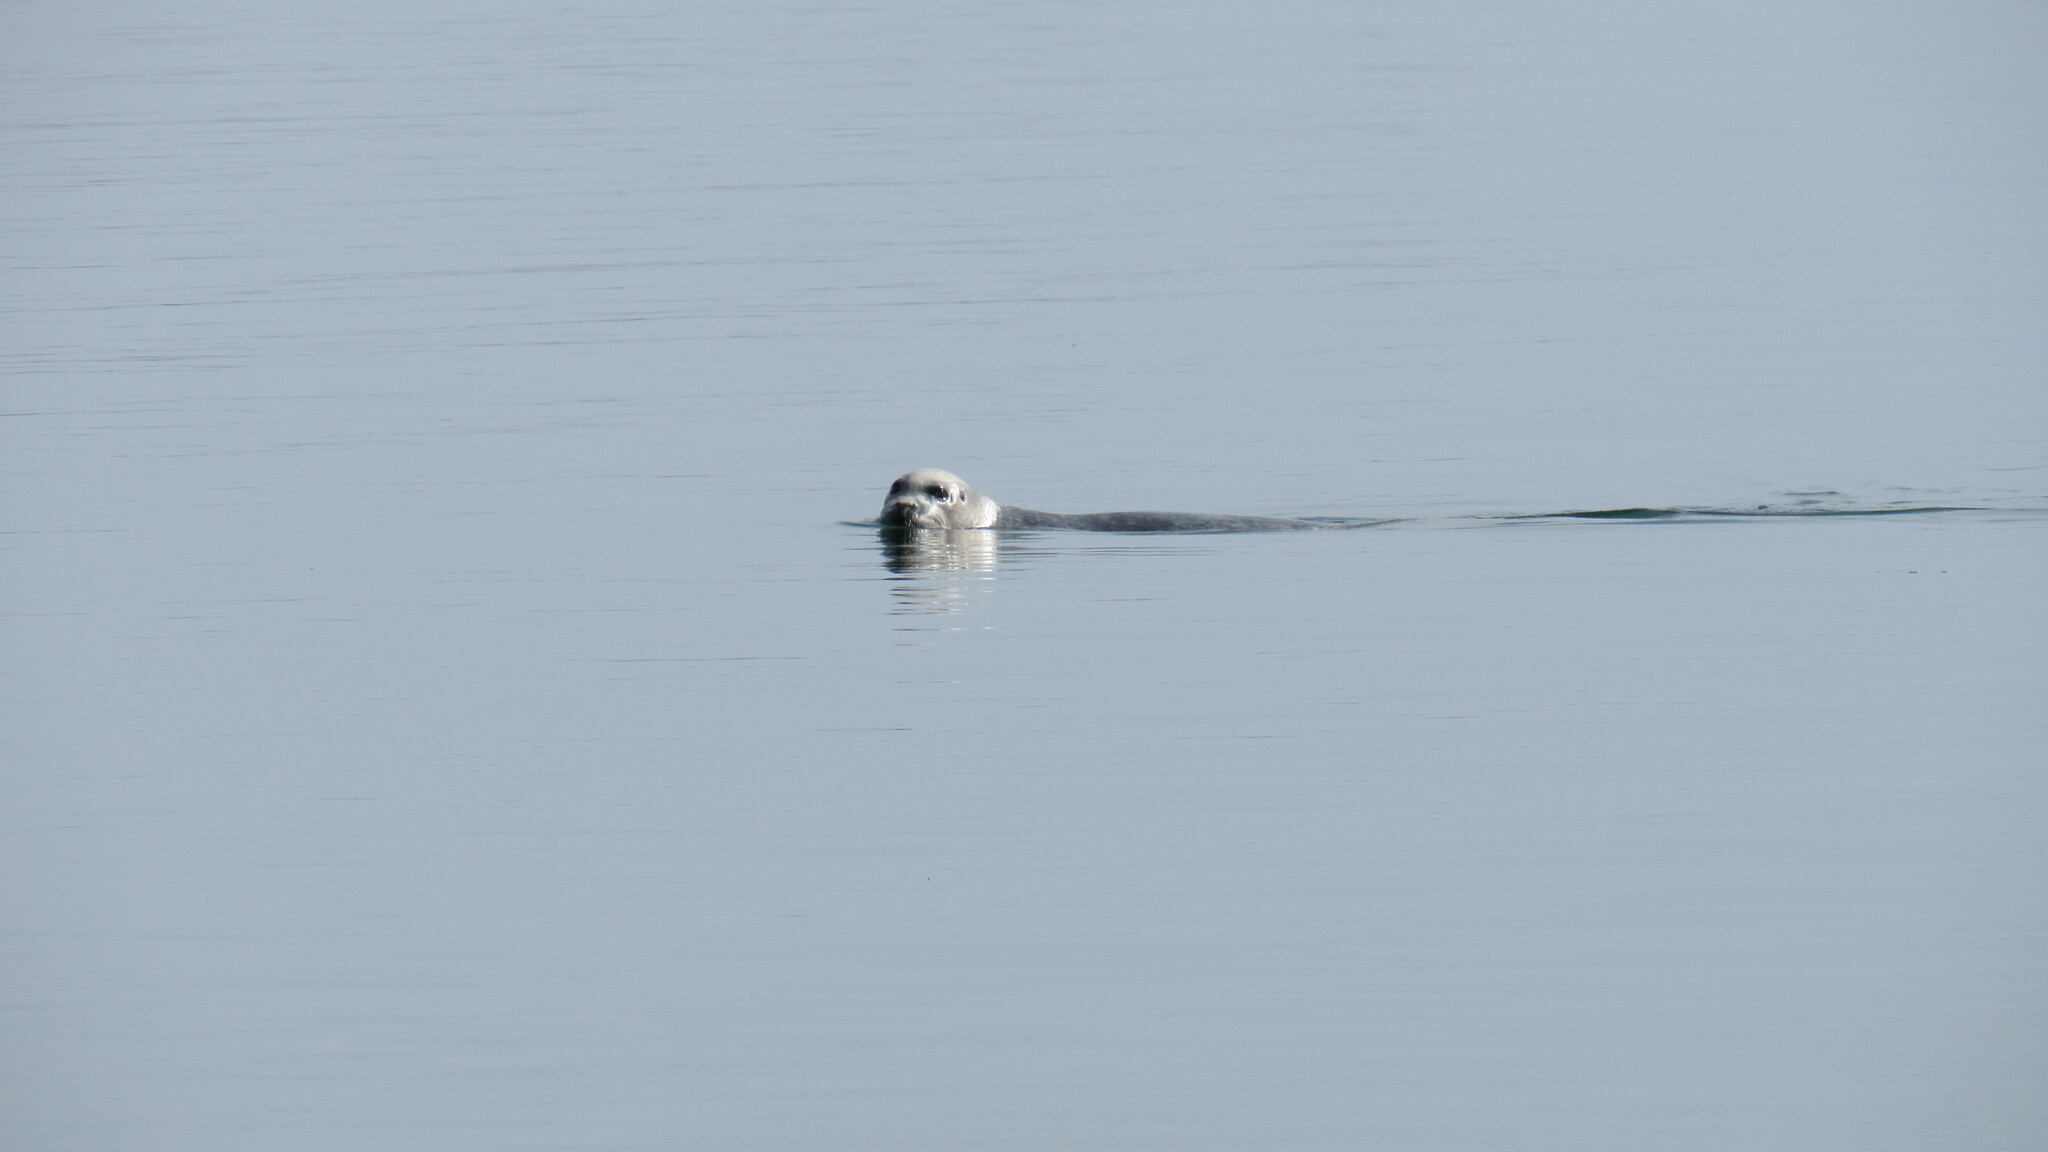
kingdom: Animalia
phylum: Chordata
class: Mammalia
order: Carnivora
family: Phocidae
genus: Erignathus
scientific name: Erignathus barbatus
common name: Bearded seal
